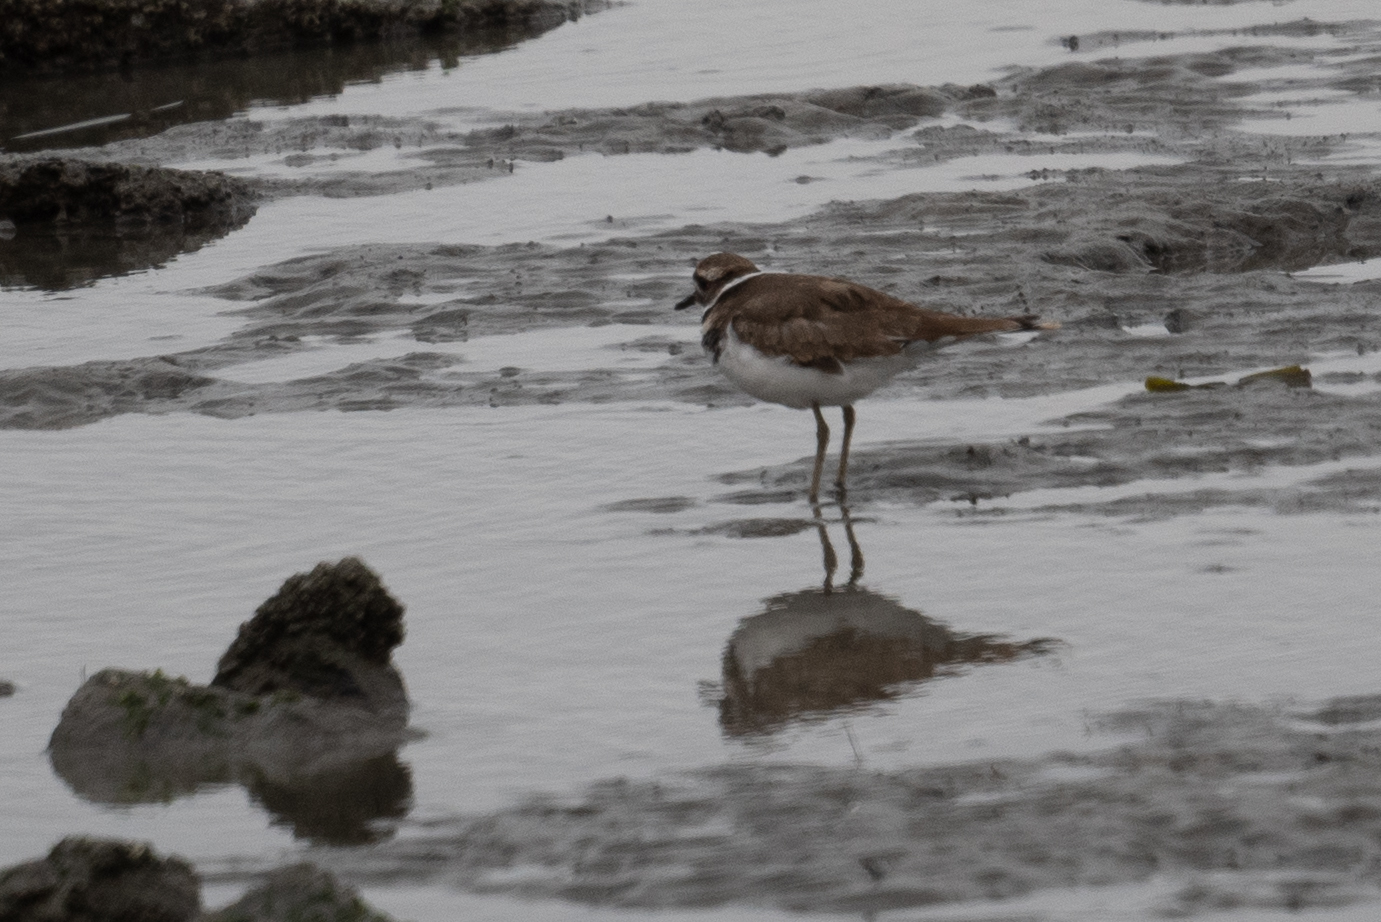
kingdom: Animalia
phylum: Chordata
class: Aves
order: Charadriiformes
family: Charadriidae
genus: Charadrius
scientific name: Charadrius vociferus
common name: Killdeer
